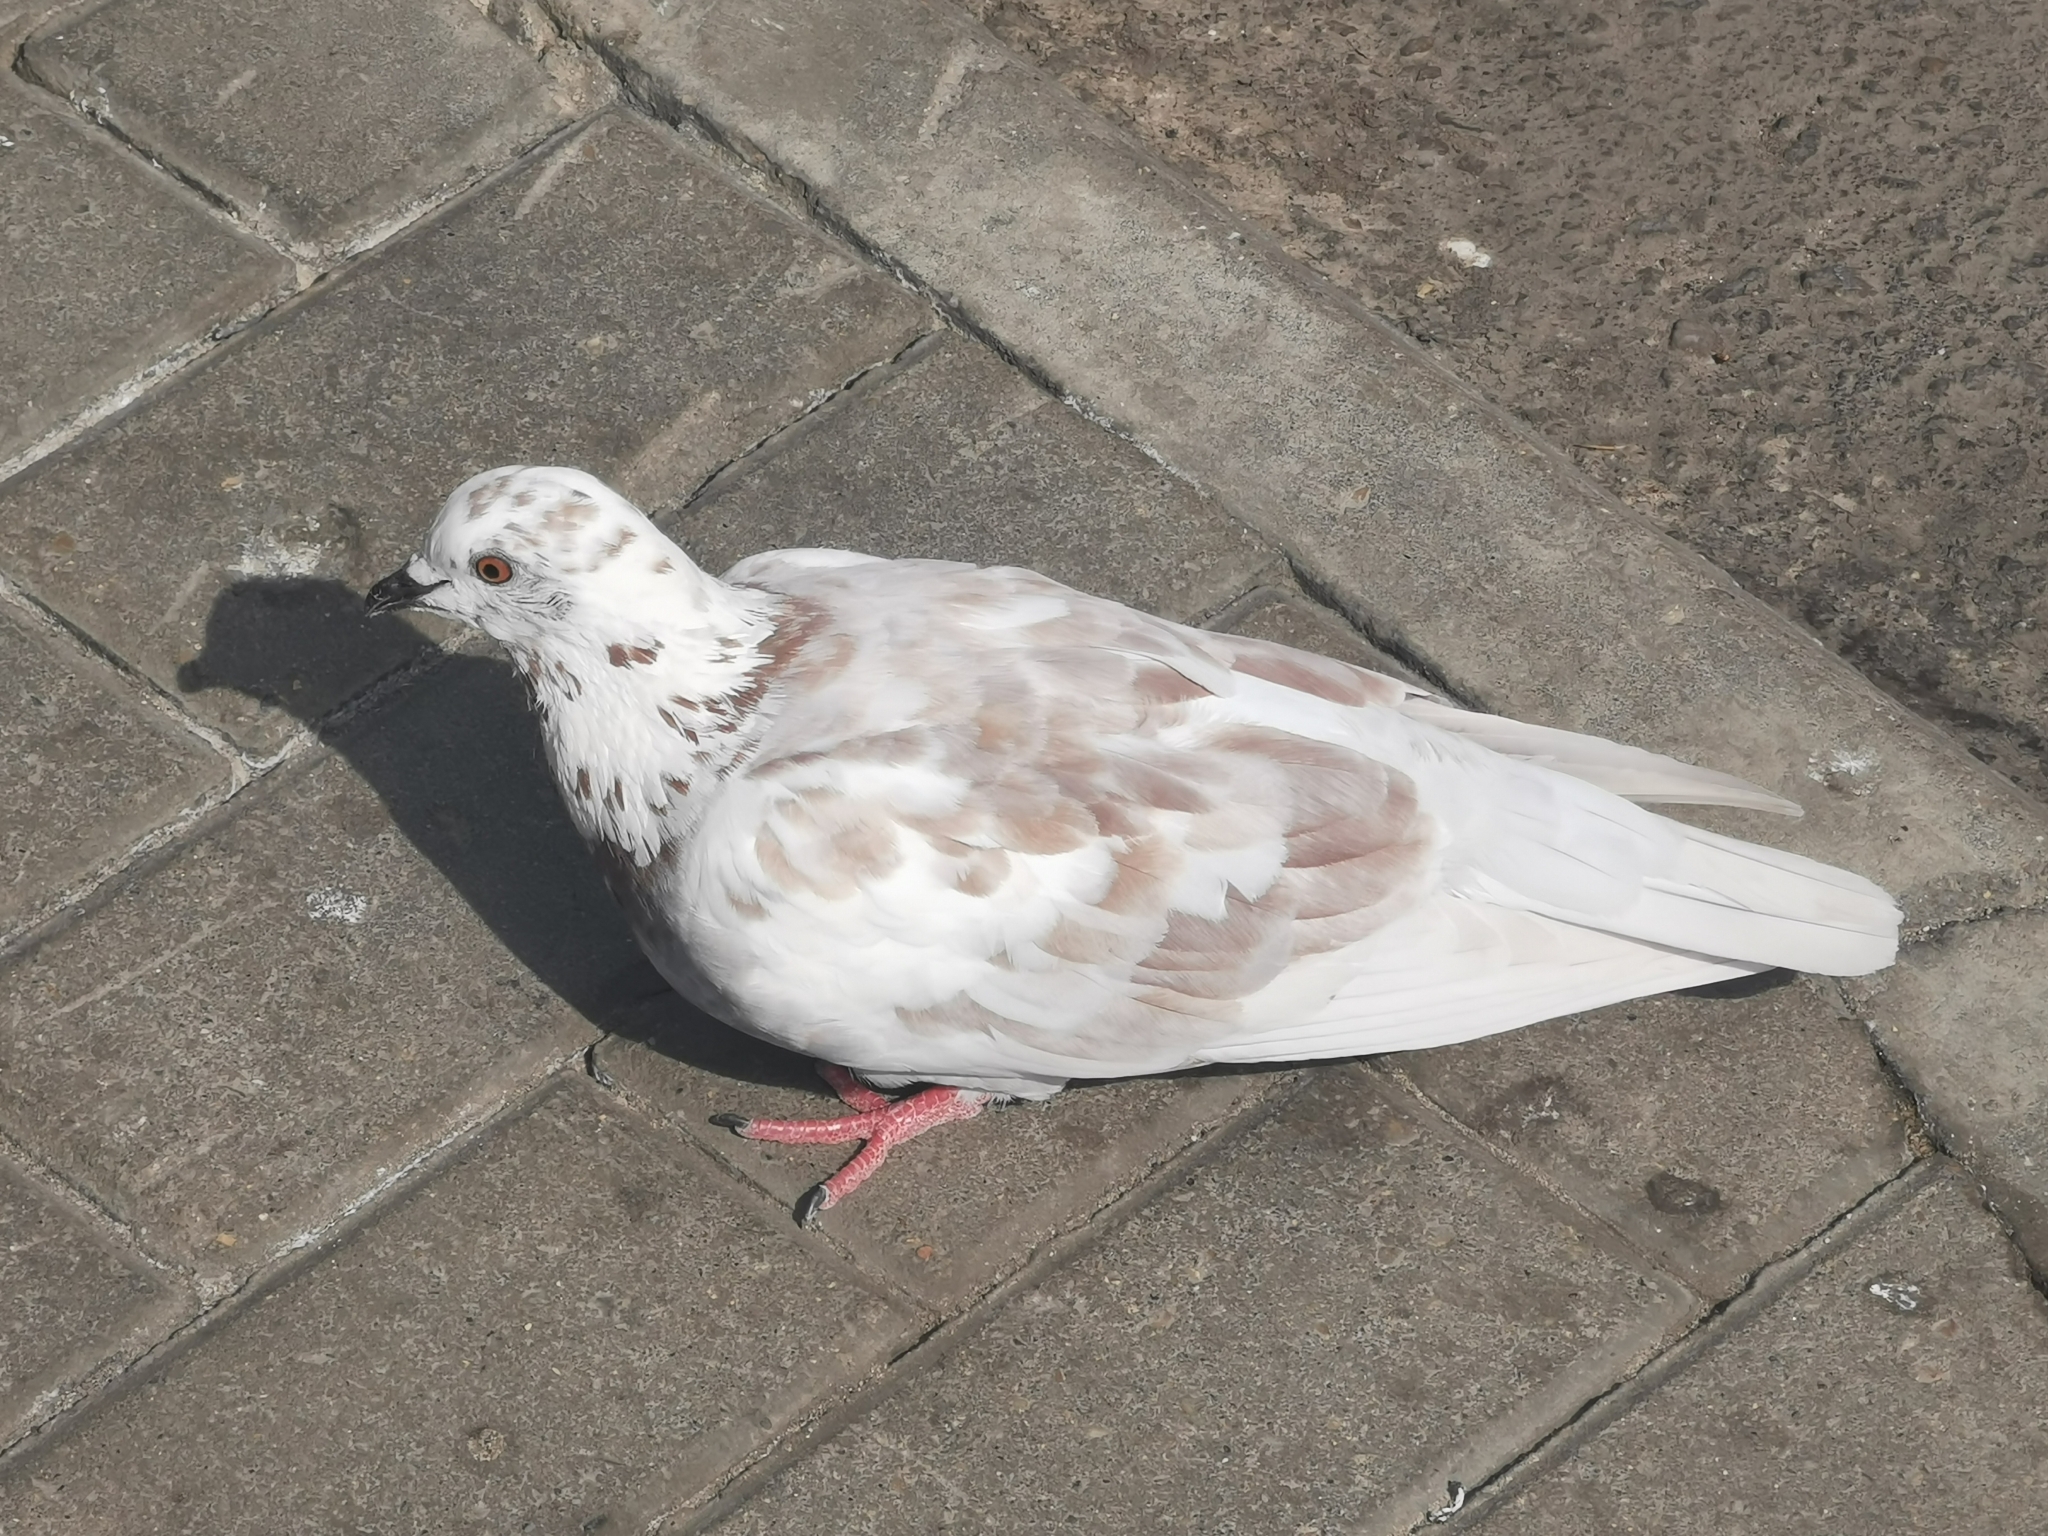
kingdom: Animalia
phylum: Chordata
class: Aves
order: Columbiformes
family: Columbidae
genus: Columba
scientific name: Columba livia
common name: Rock pigeon
